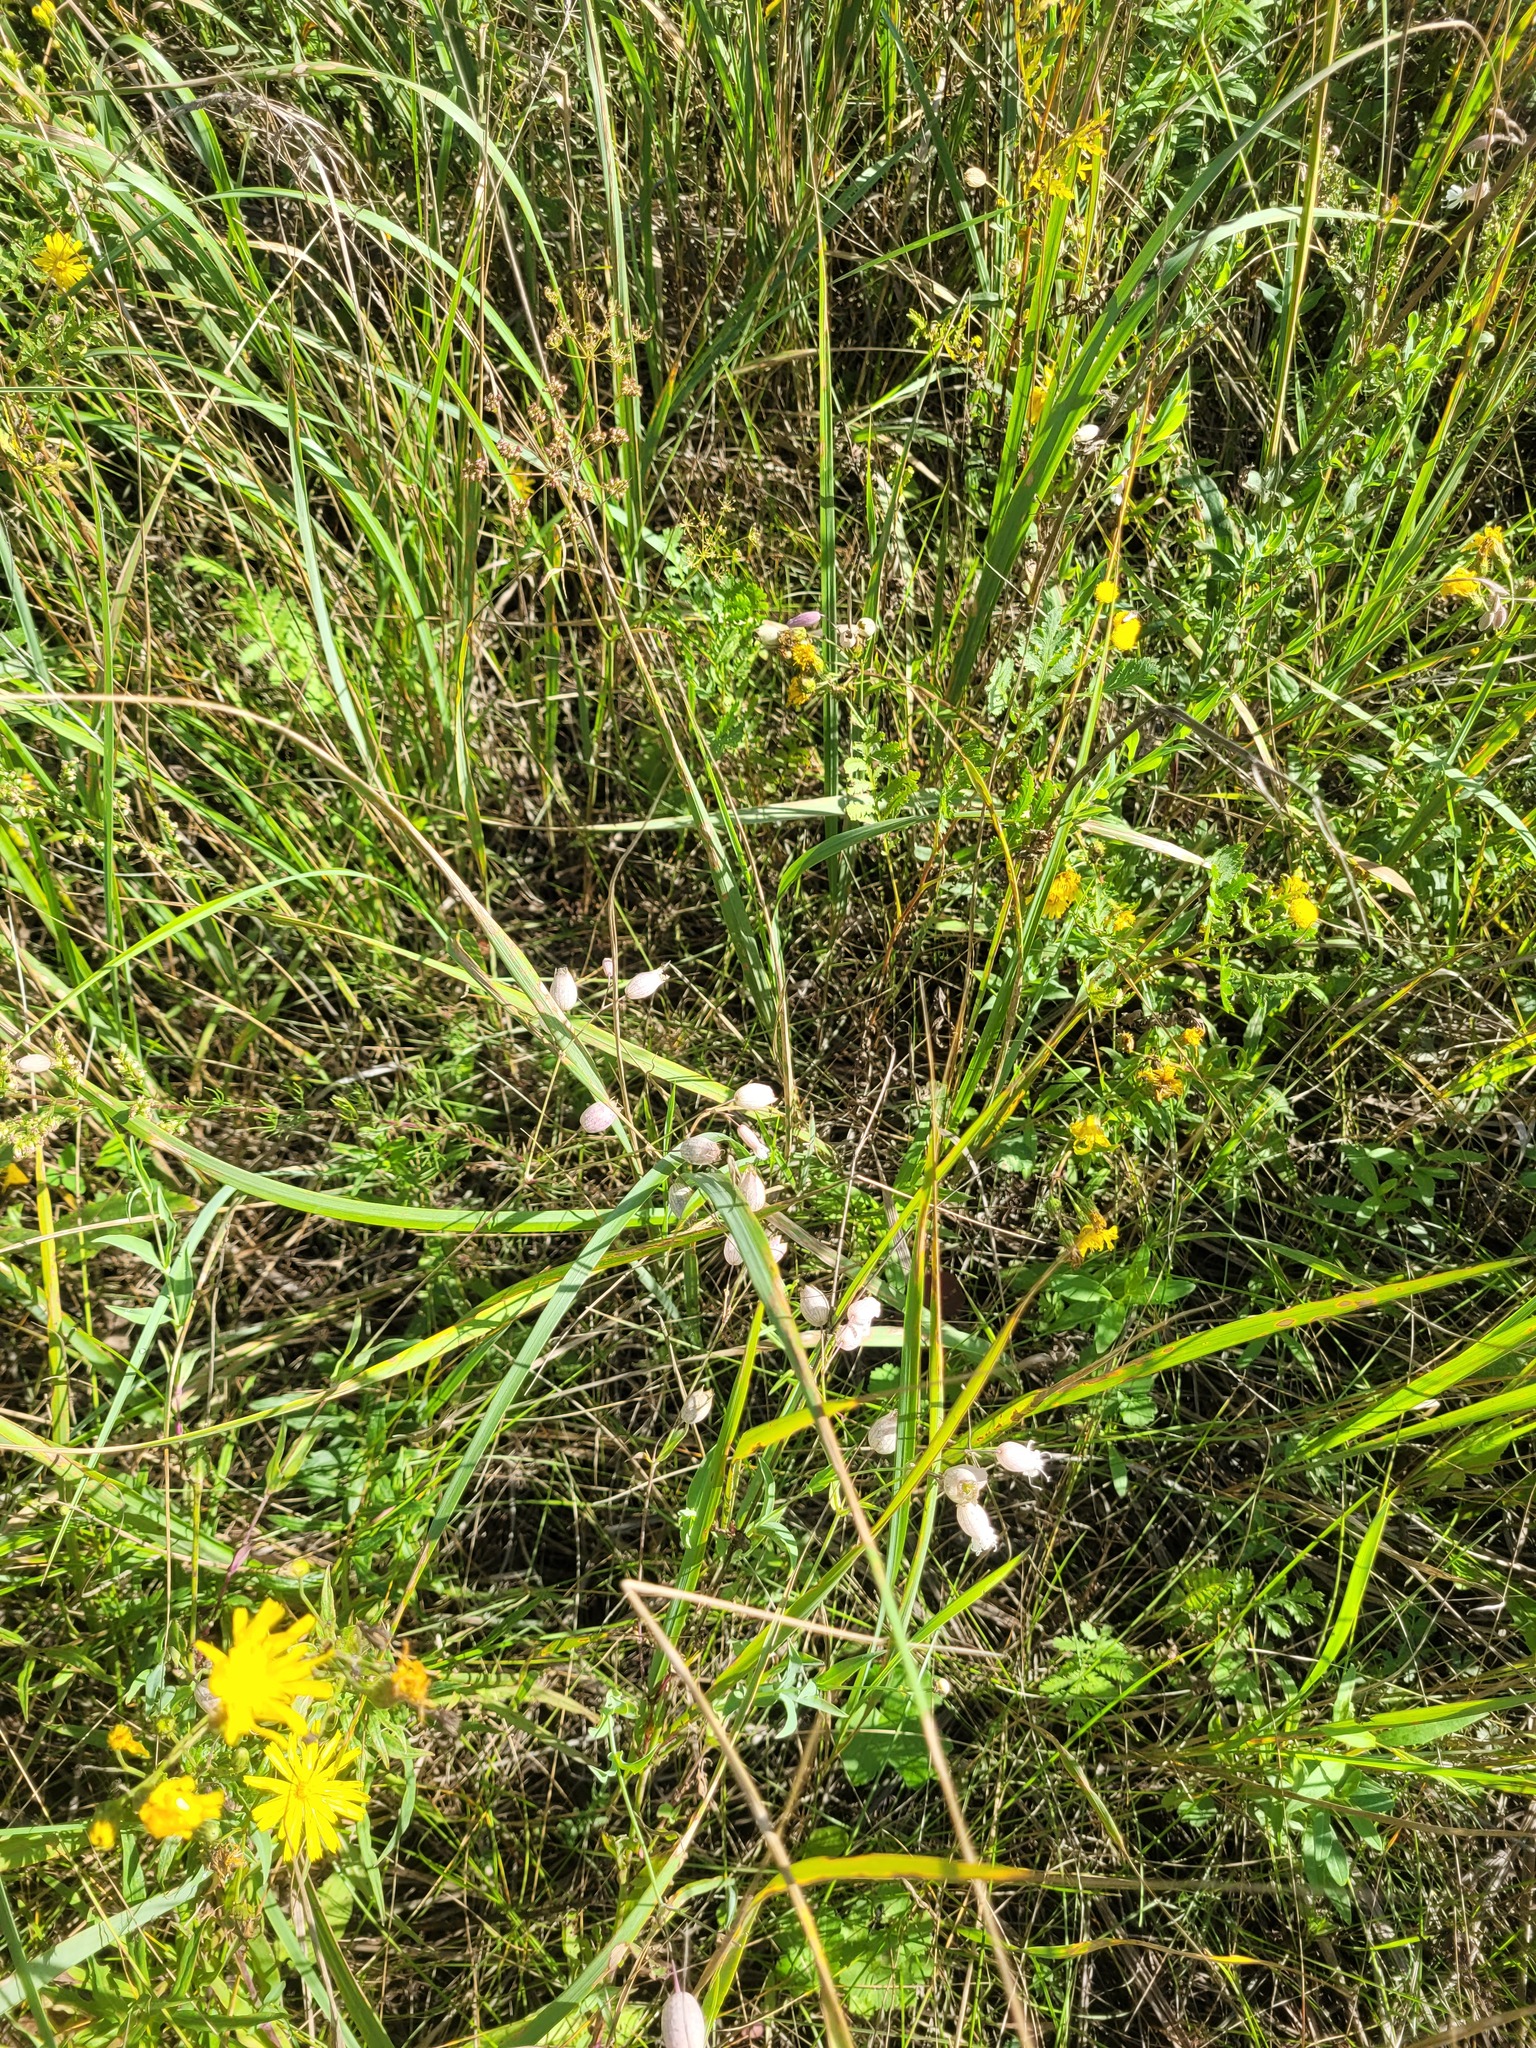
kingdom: Plantae
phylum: Tracheophyta
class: Magnoliopsida
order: Caryophyllales
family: Caryophyllaceae
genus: Silene
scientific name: Silene vulgaris
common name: Bladder campion
